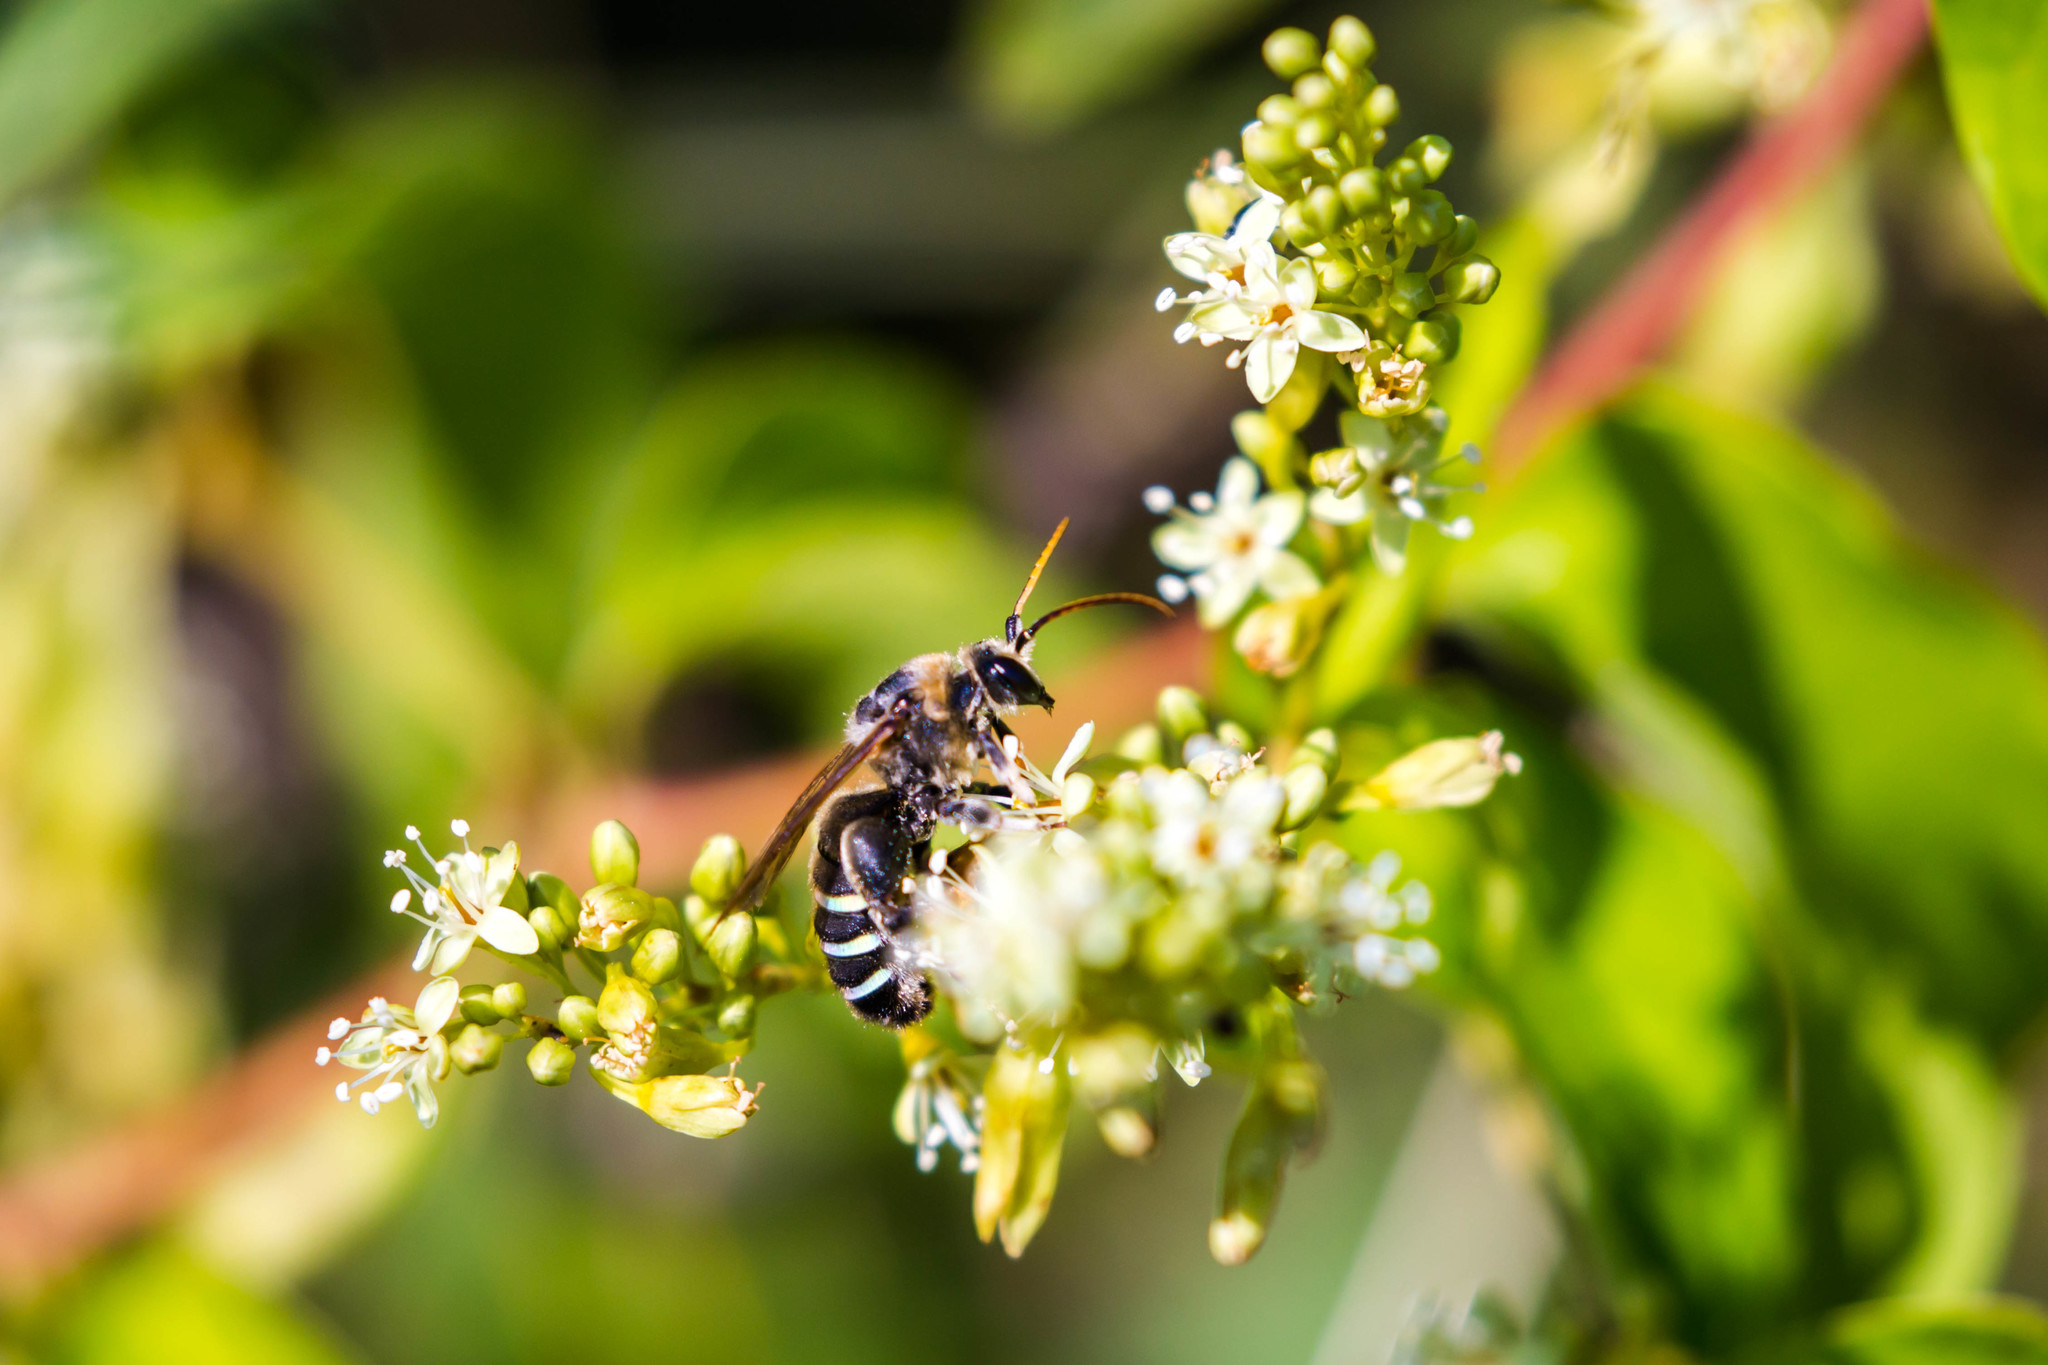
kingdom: Animalia
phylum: Arthropoda
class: Insecta
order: Hymenoptera
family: Halictidae
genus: Nomia
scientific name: Nomia nortoni
